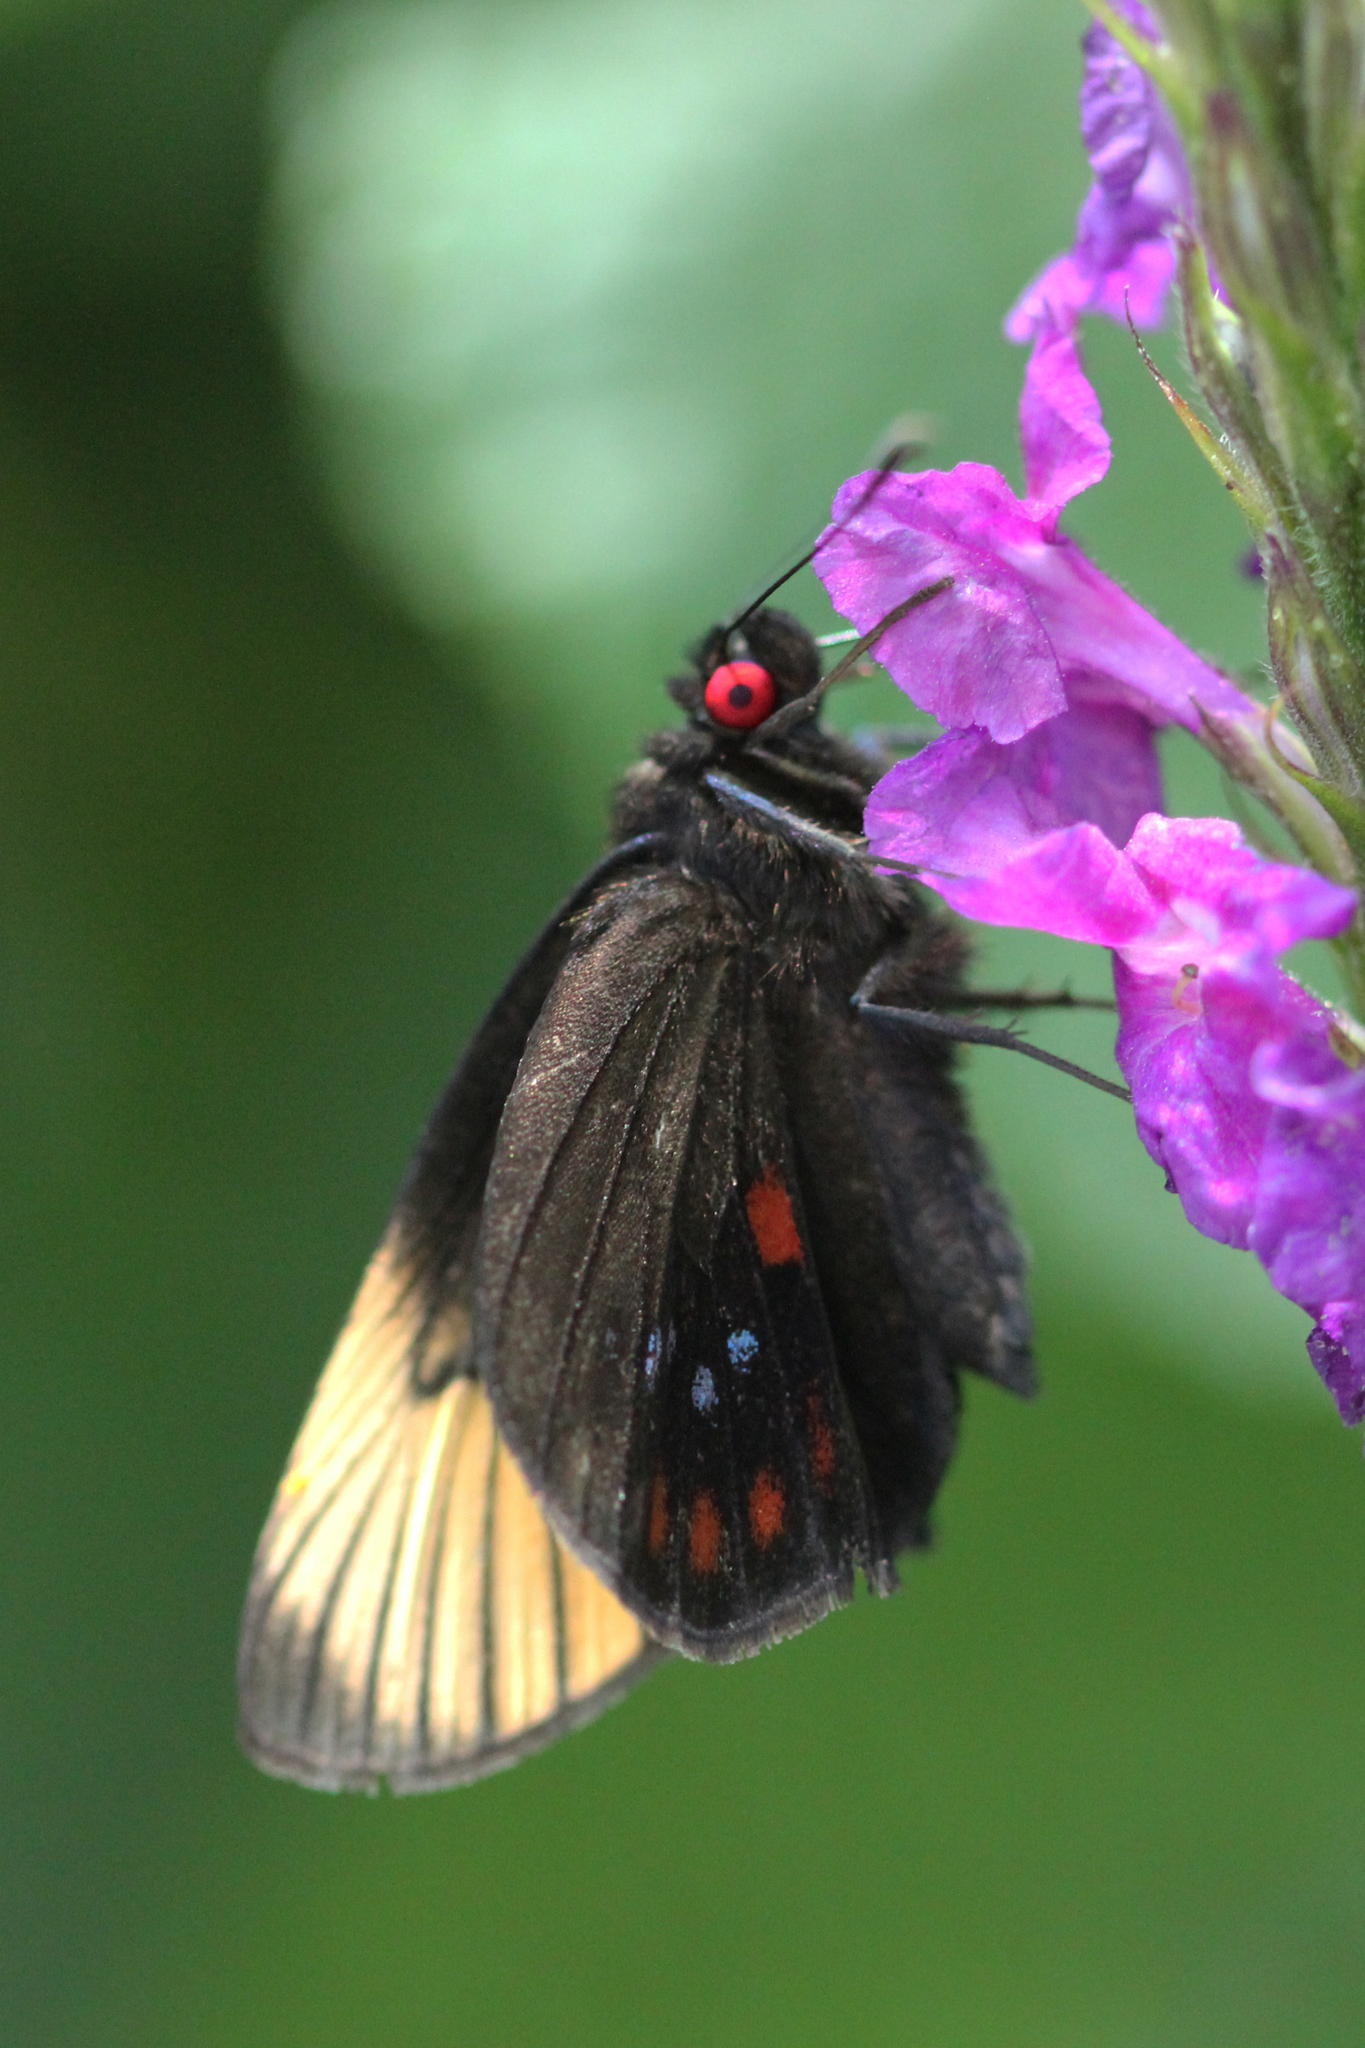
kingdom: Animalia
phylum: Arthropoda
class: Insecta
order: Lepidoptera
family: Hesperiidae
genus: Dion
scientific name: Dion gemmatus
